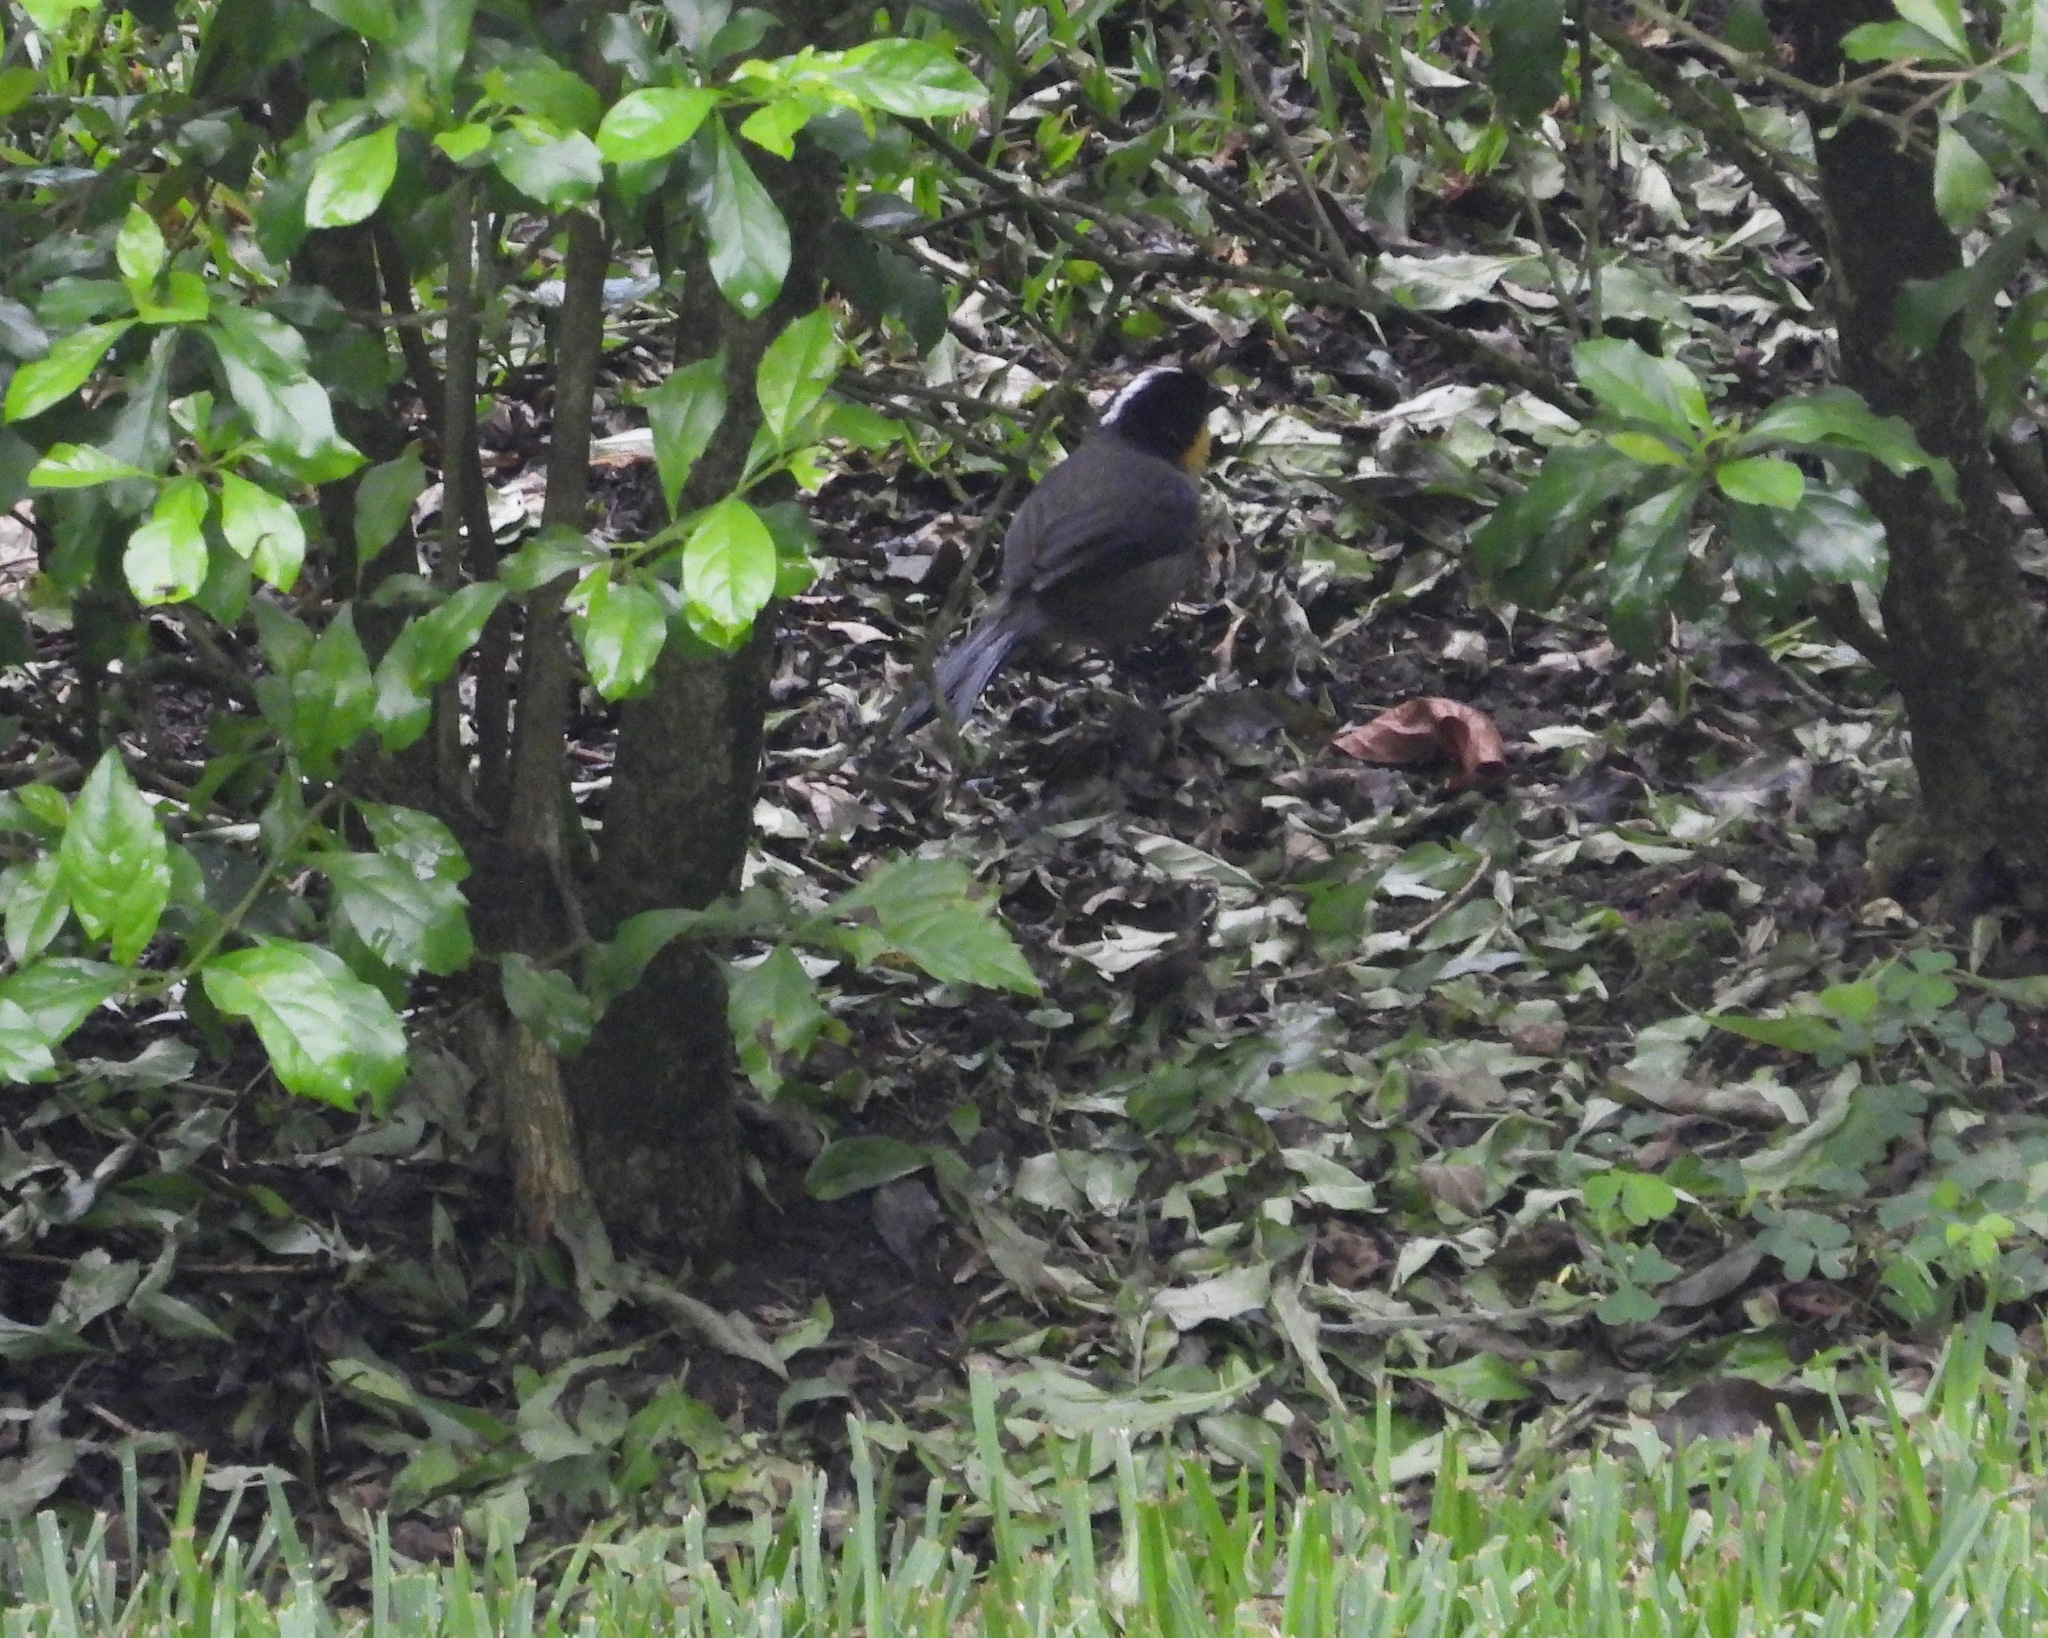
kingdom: Animalia
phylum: Chordata
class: Aves
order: Passeriformes
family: Passerellidae
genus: Atlapetes
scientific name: Atlapetes albinucha
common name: White-naped brush-finch
